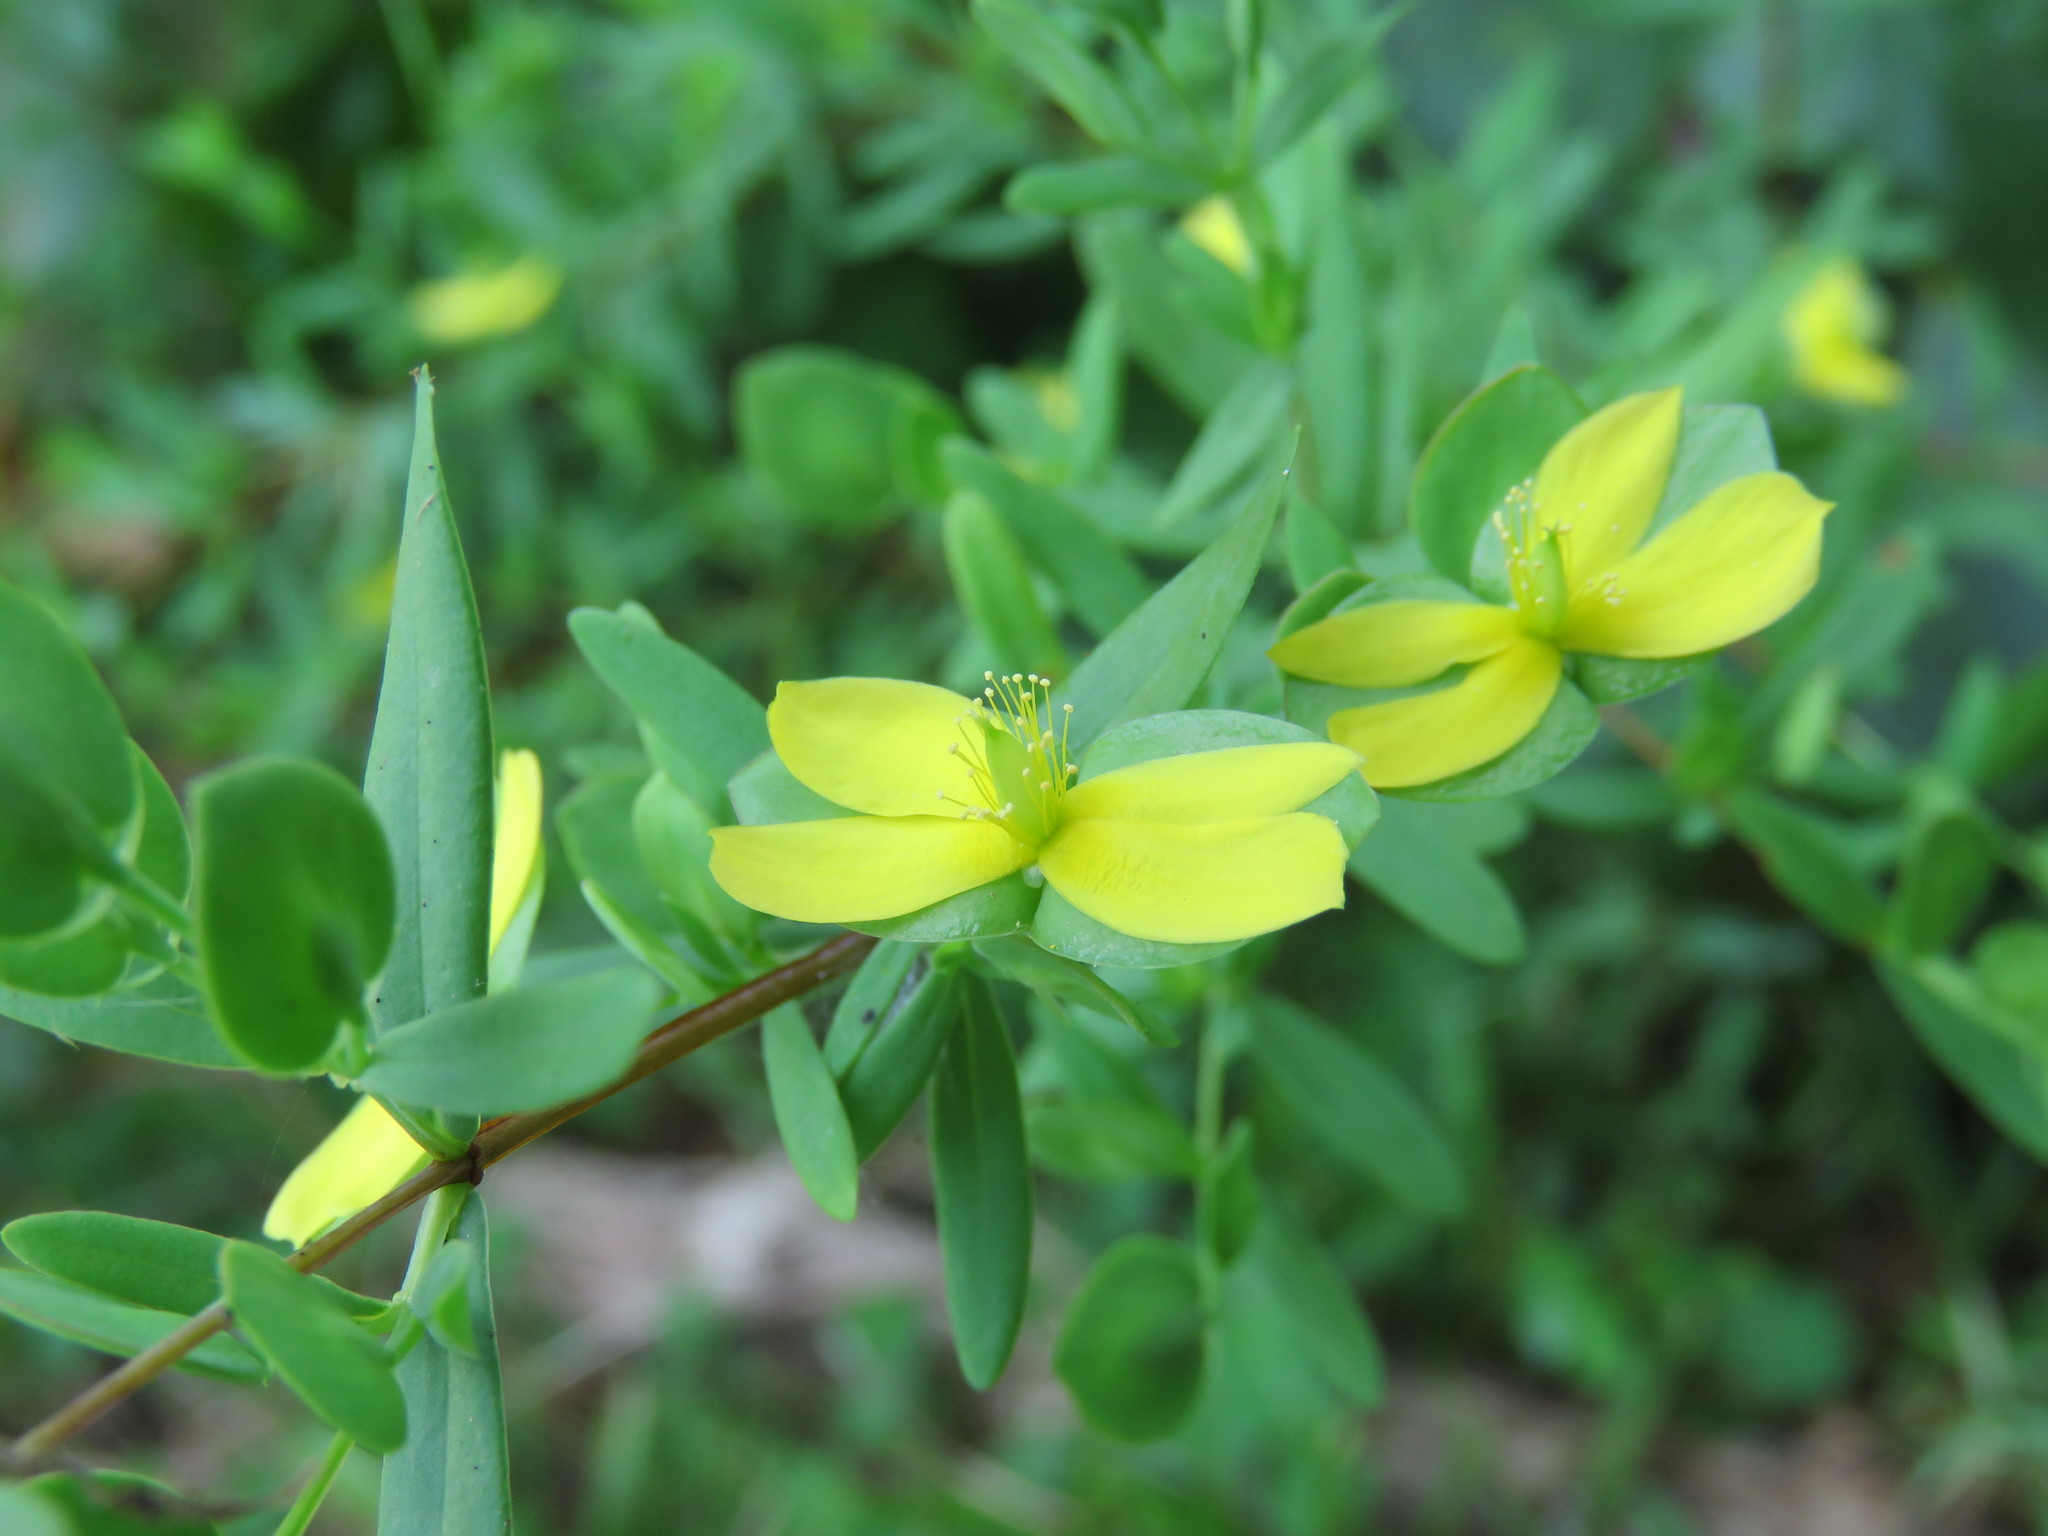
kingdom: Plantae
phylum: Tracheophyta
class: Magnoliopsida
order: Malpighiales
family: Hypericaceae
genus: Hypericum
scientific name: Hypericum hypericoides
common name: St. andrew's cross
